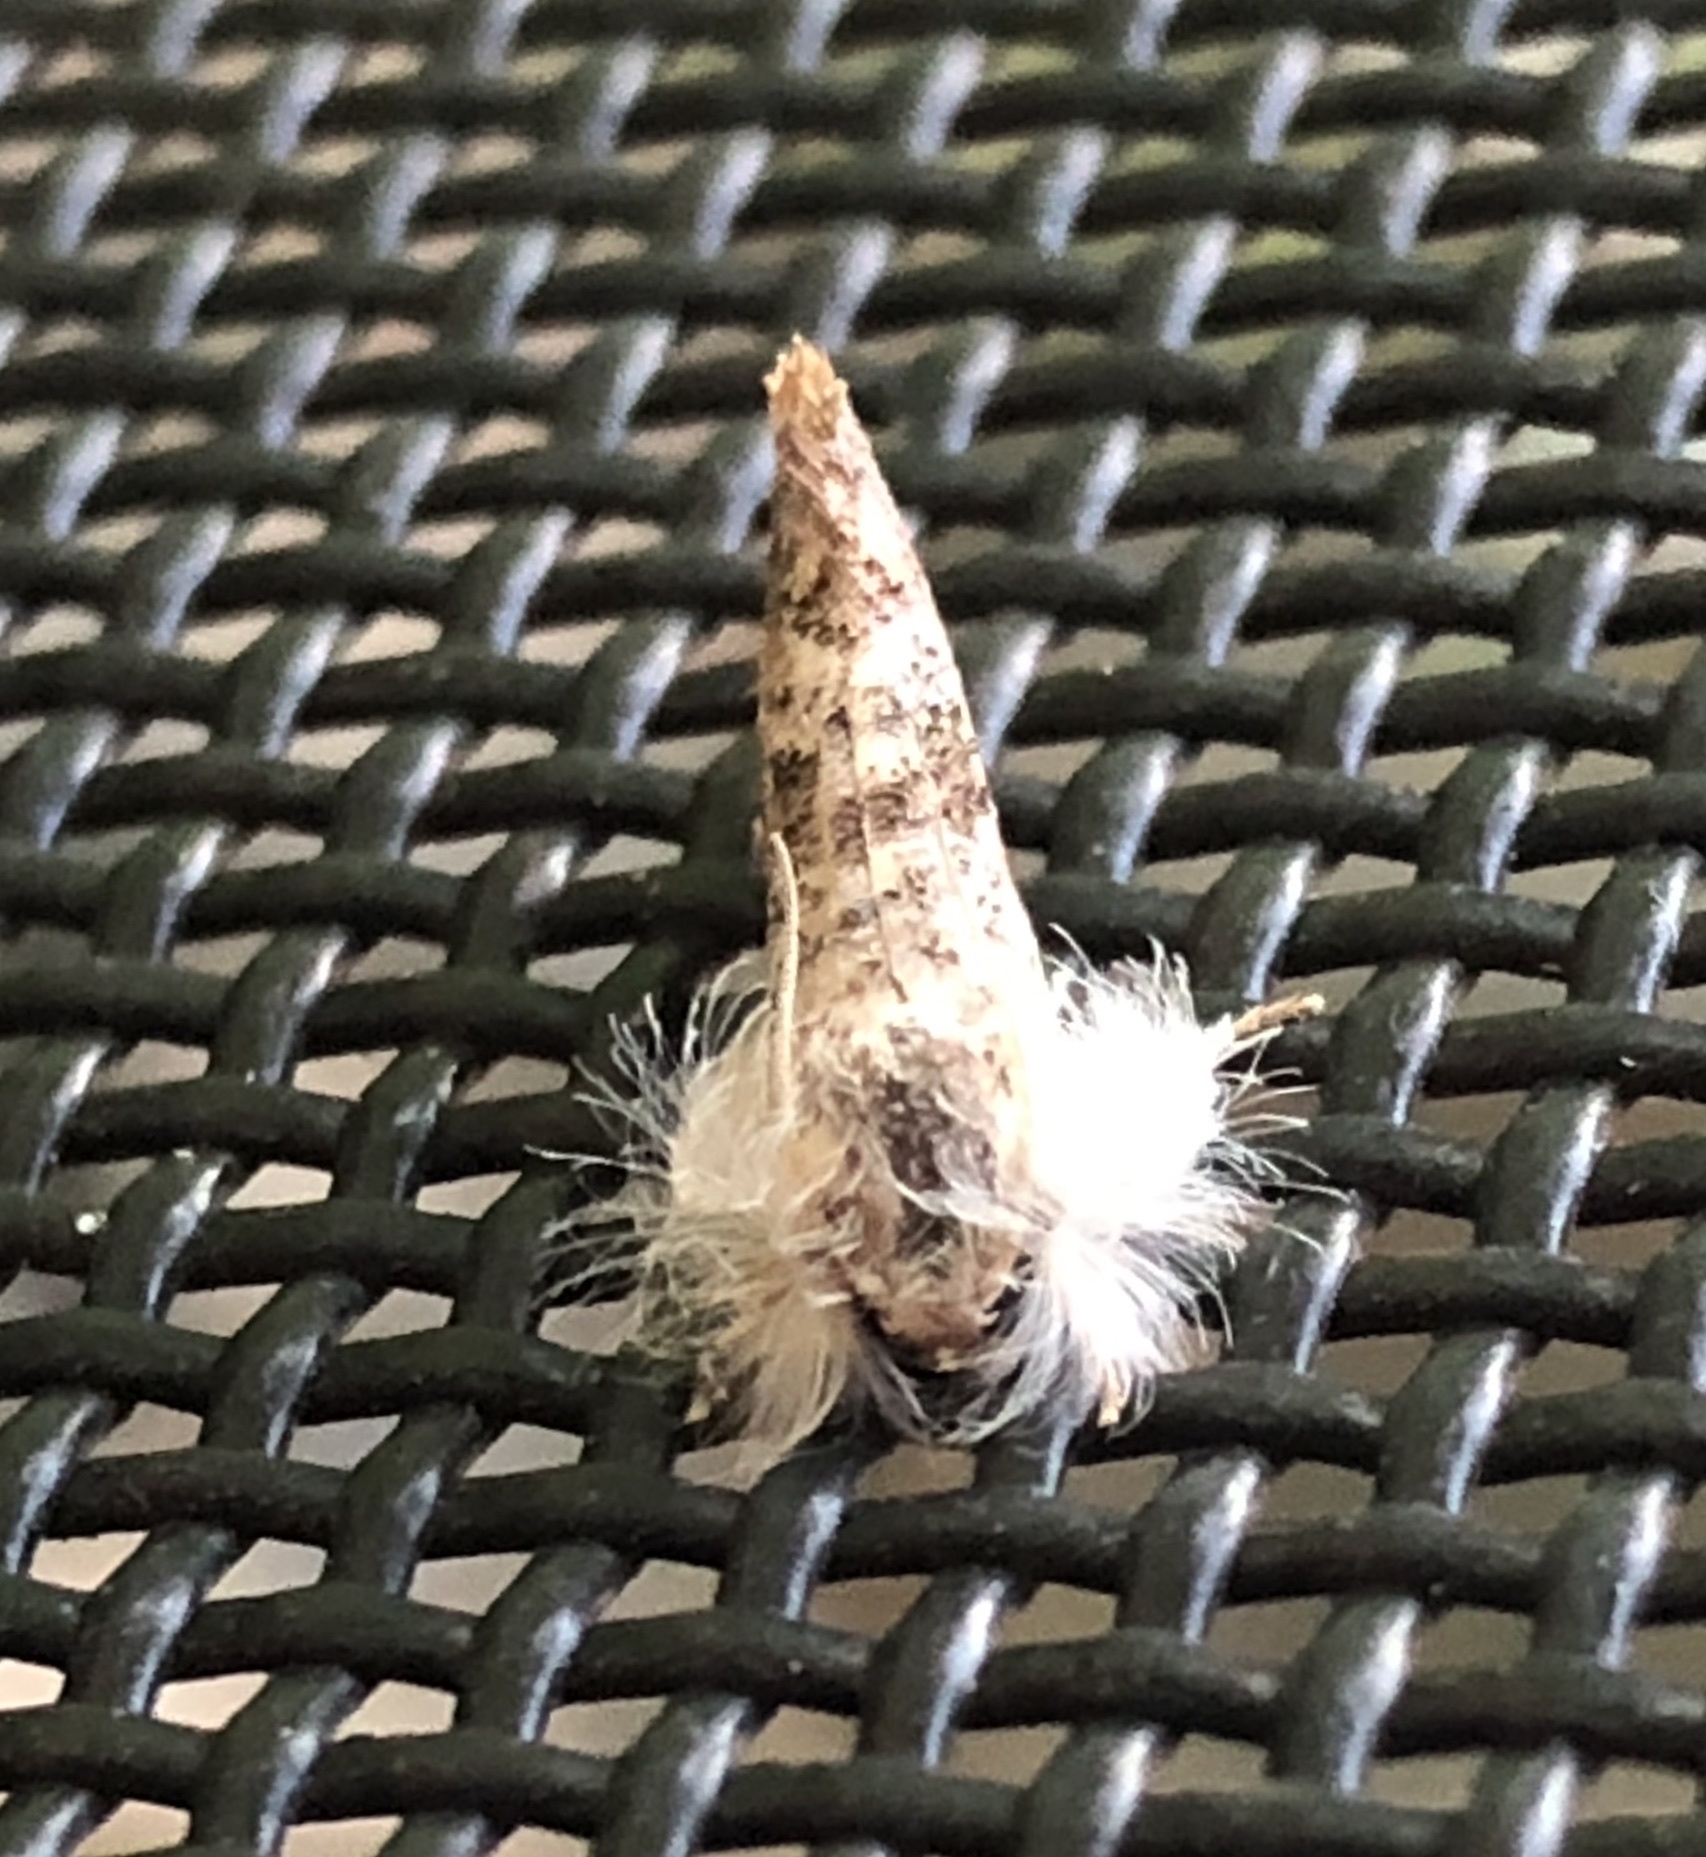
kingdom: Animalia
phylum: Arthropoda
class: Insecta
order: Lepidoptera
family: Tineidae
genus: Acrolophus
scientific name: Acrolophus mycetophagus
